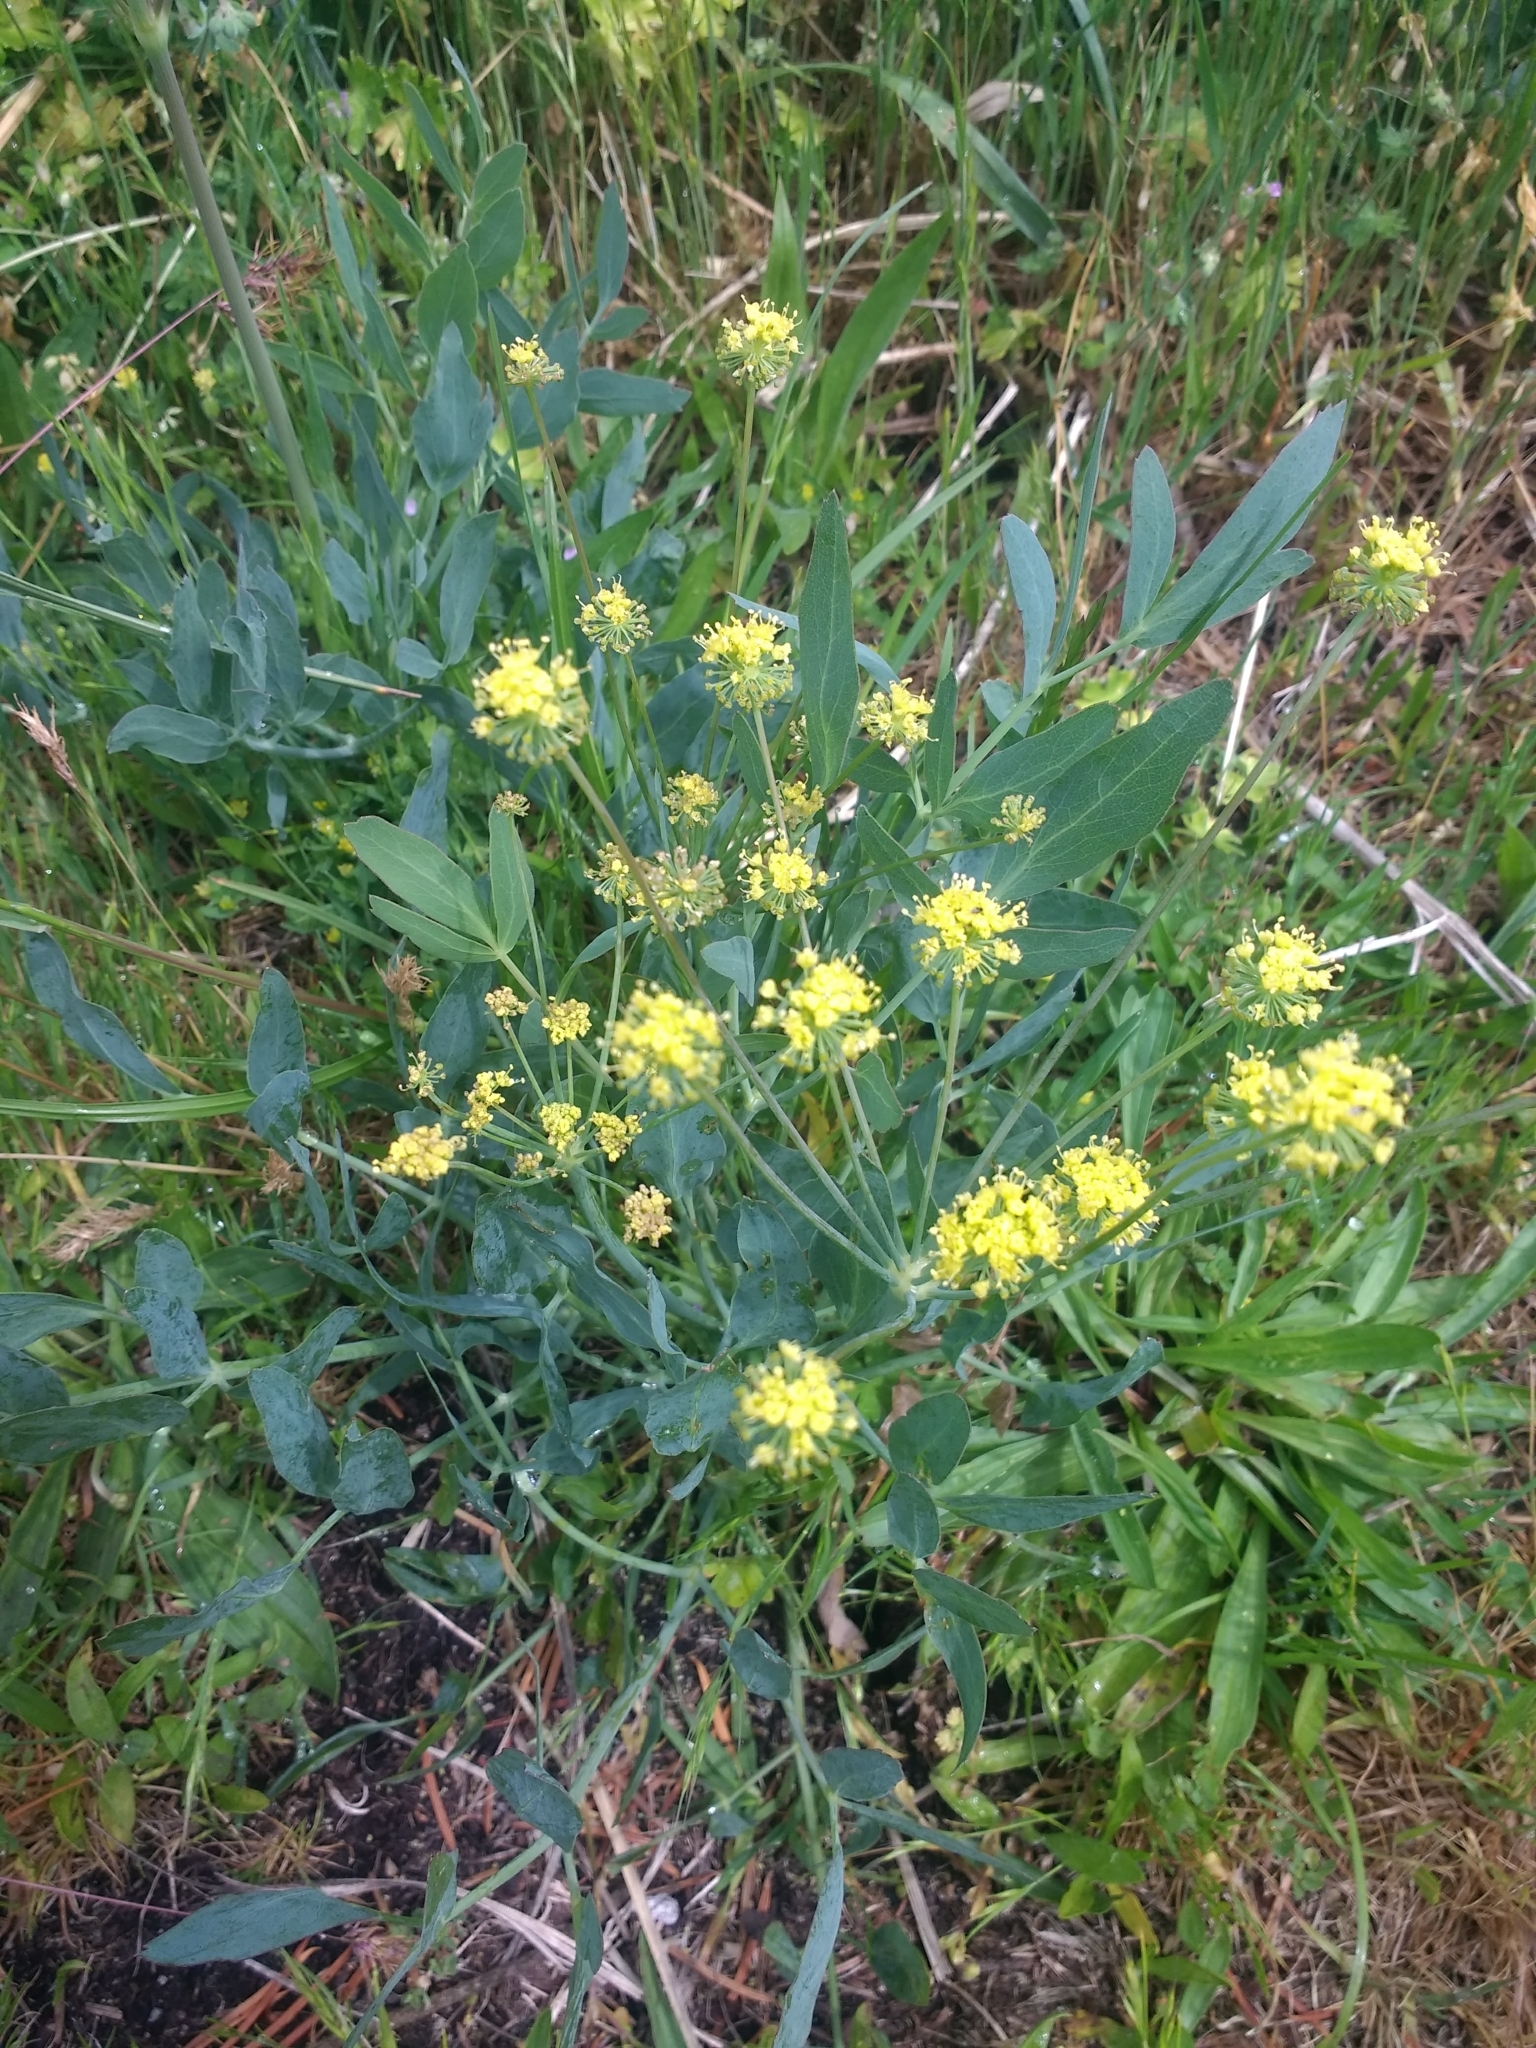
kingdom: Plantae
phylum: Tracheophyta
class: Magnoliopsida
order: Apiales
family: Apiaceae
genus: Lomatium
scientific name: Lomatium nudicaule
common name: Pestle lomatium
